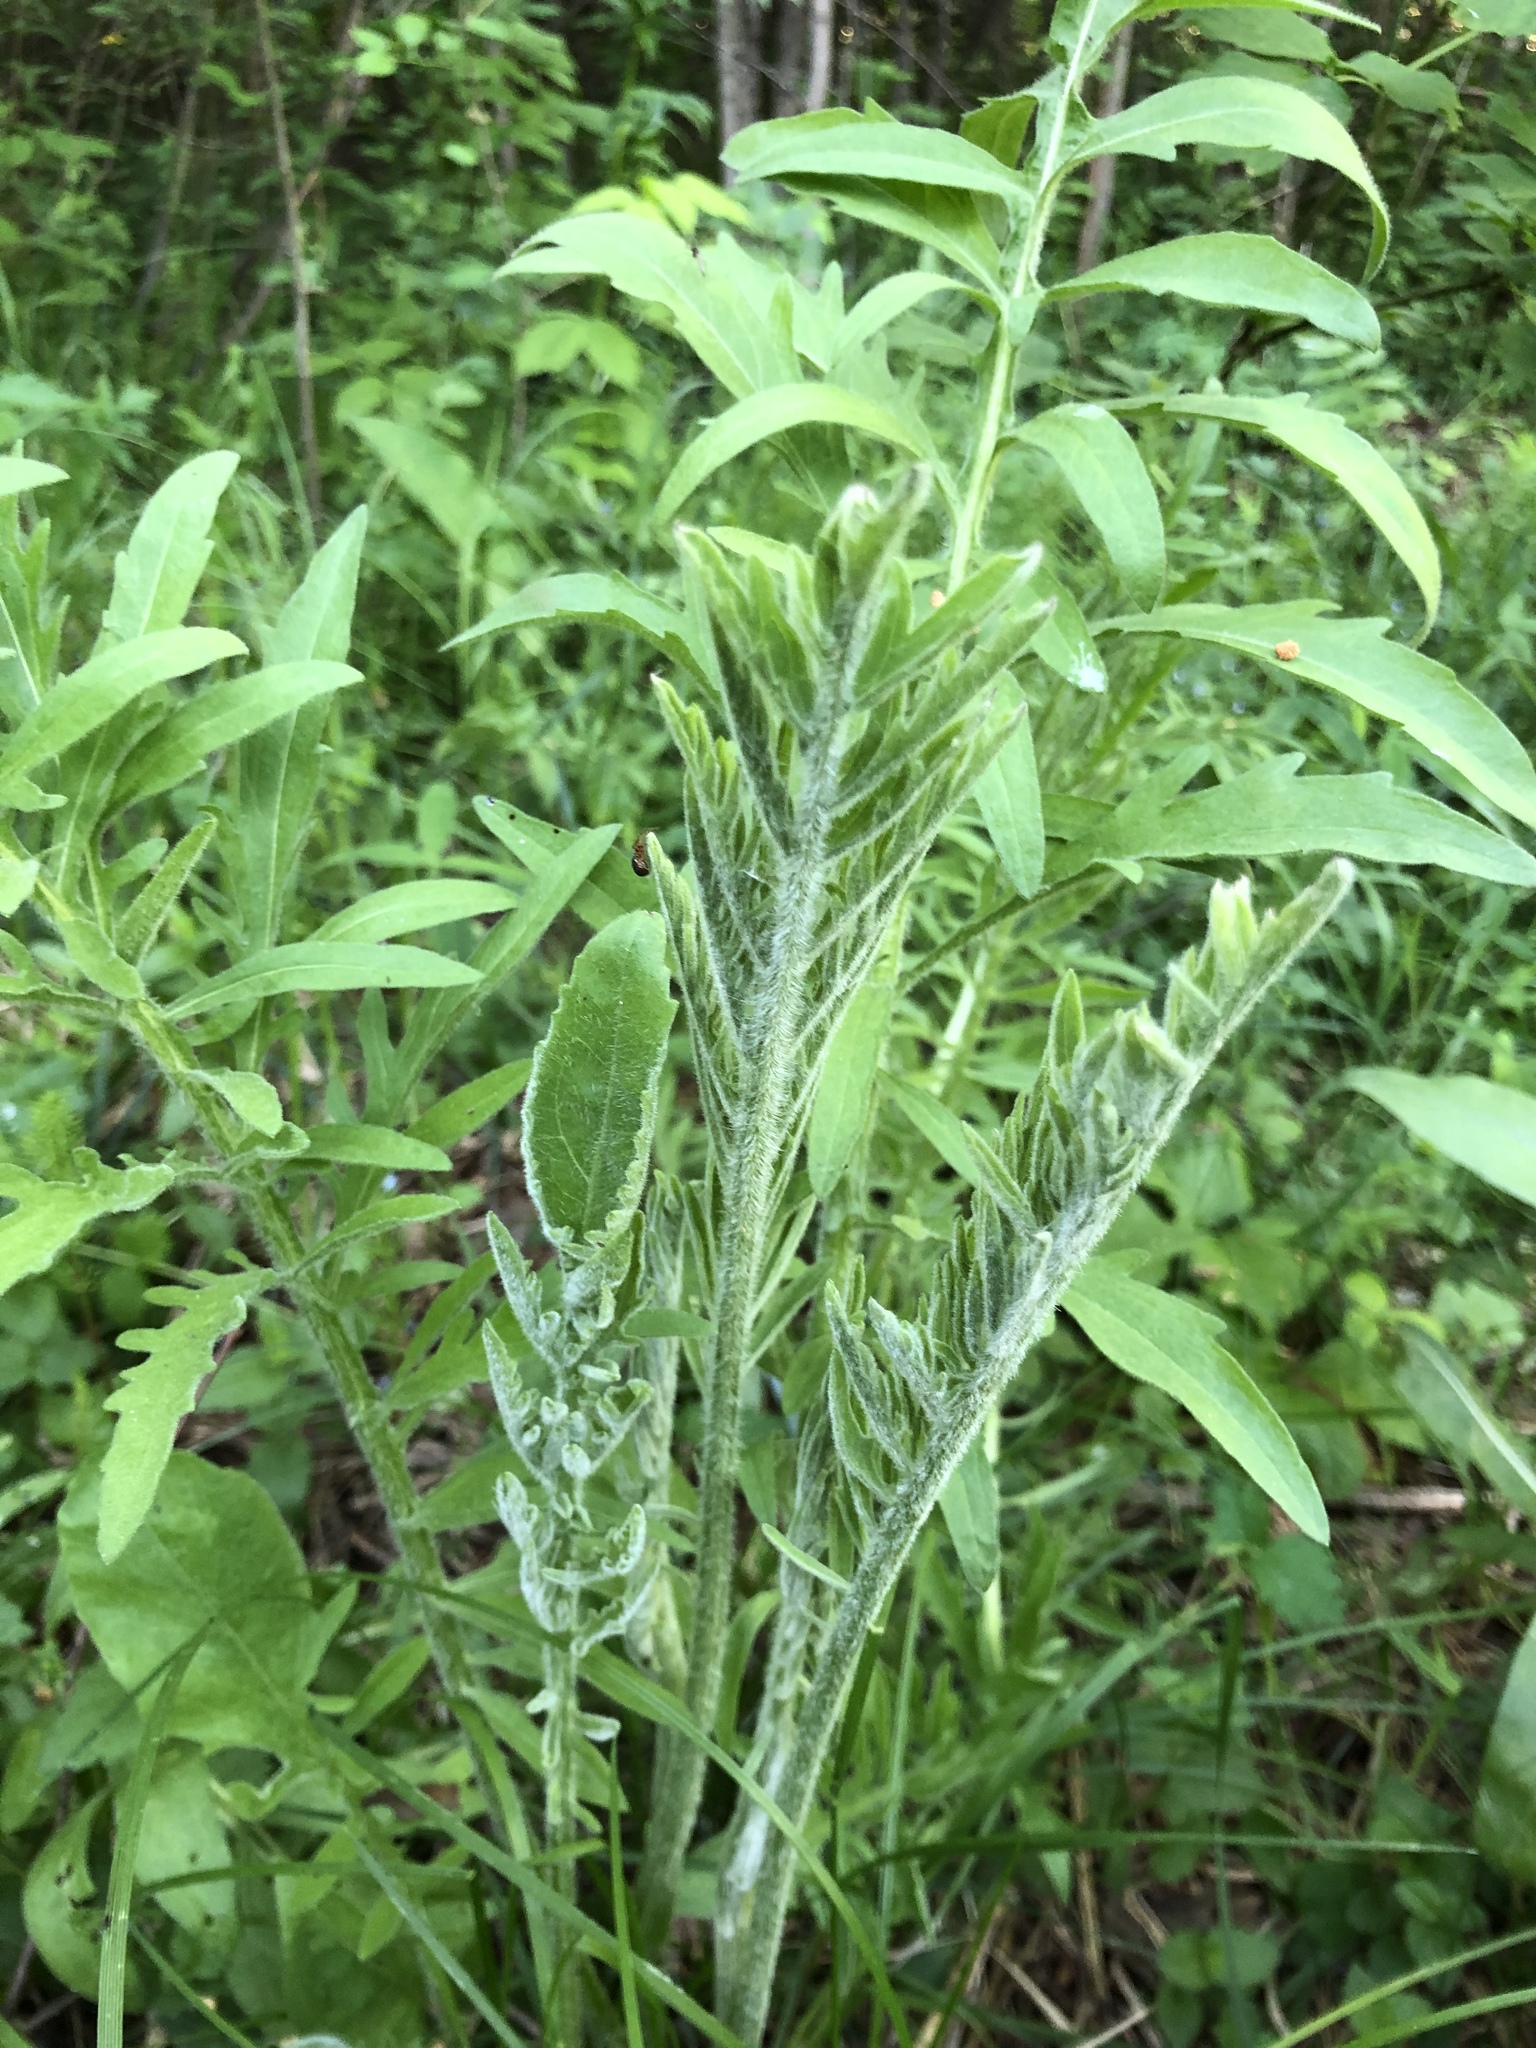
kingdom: Plantae
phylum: Tracheophyta
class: Magnoliopsida
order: Asterales
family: Asteraceae
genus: Centaurea
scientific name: Centaurea scabiosa
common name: Greater knapweed
